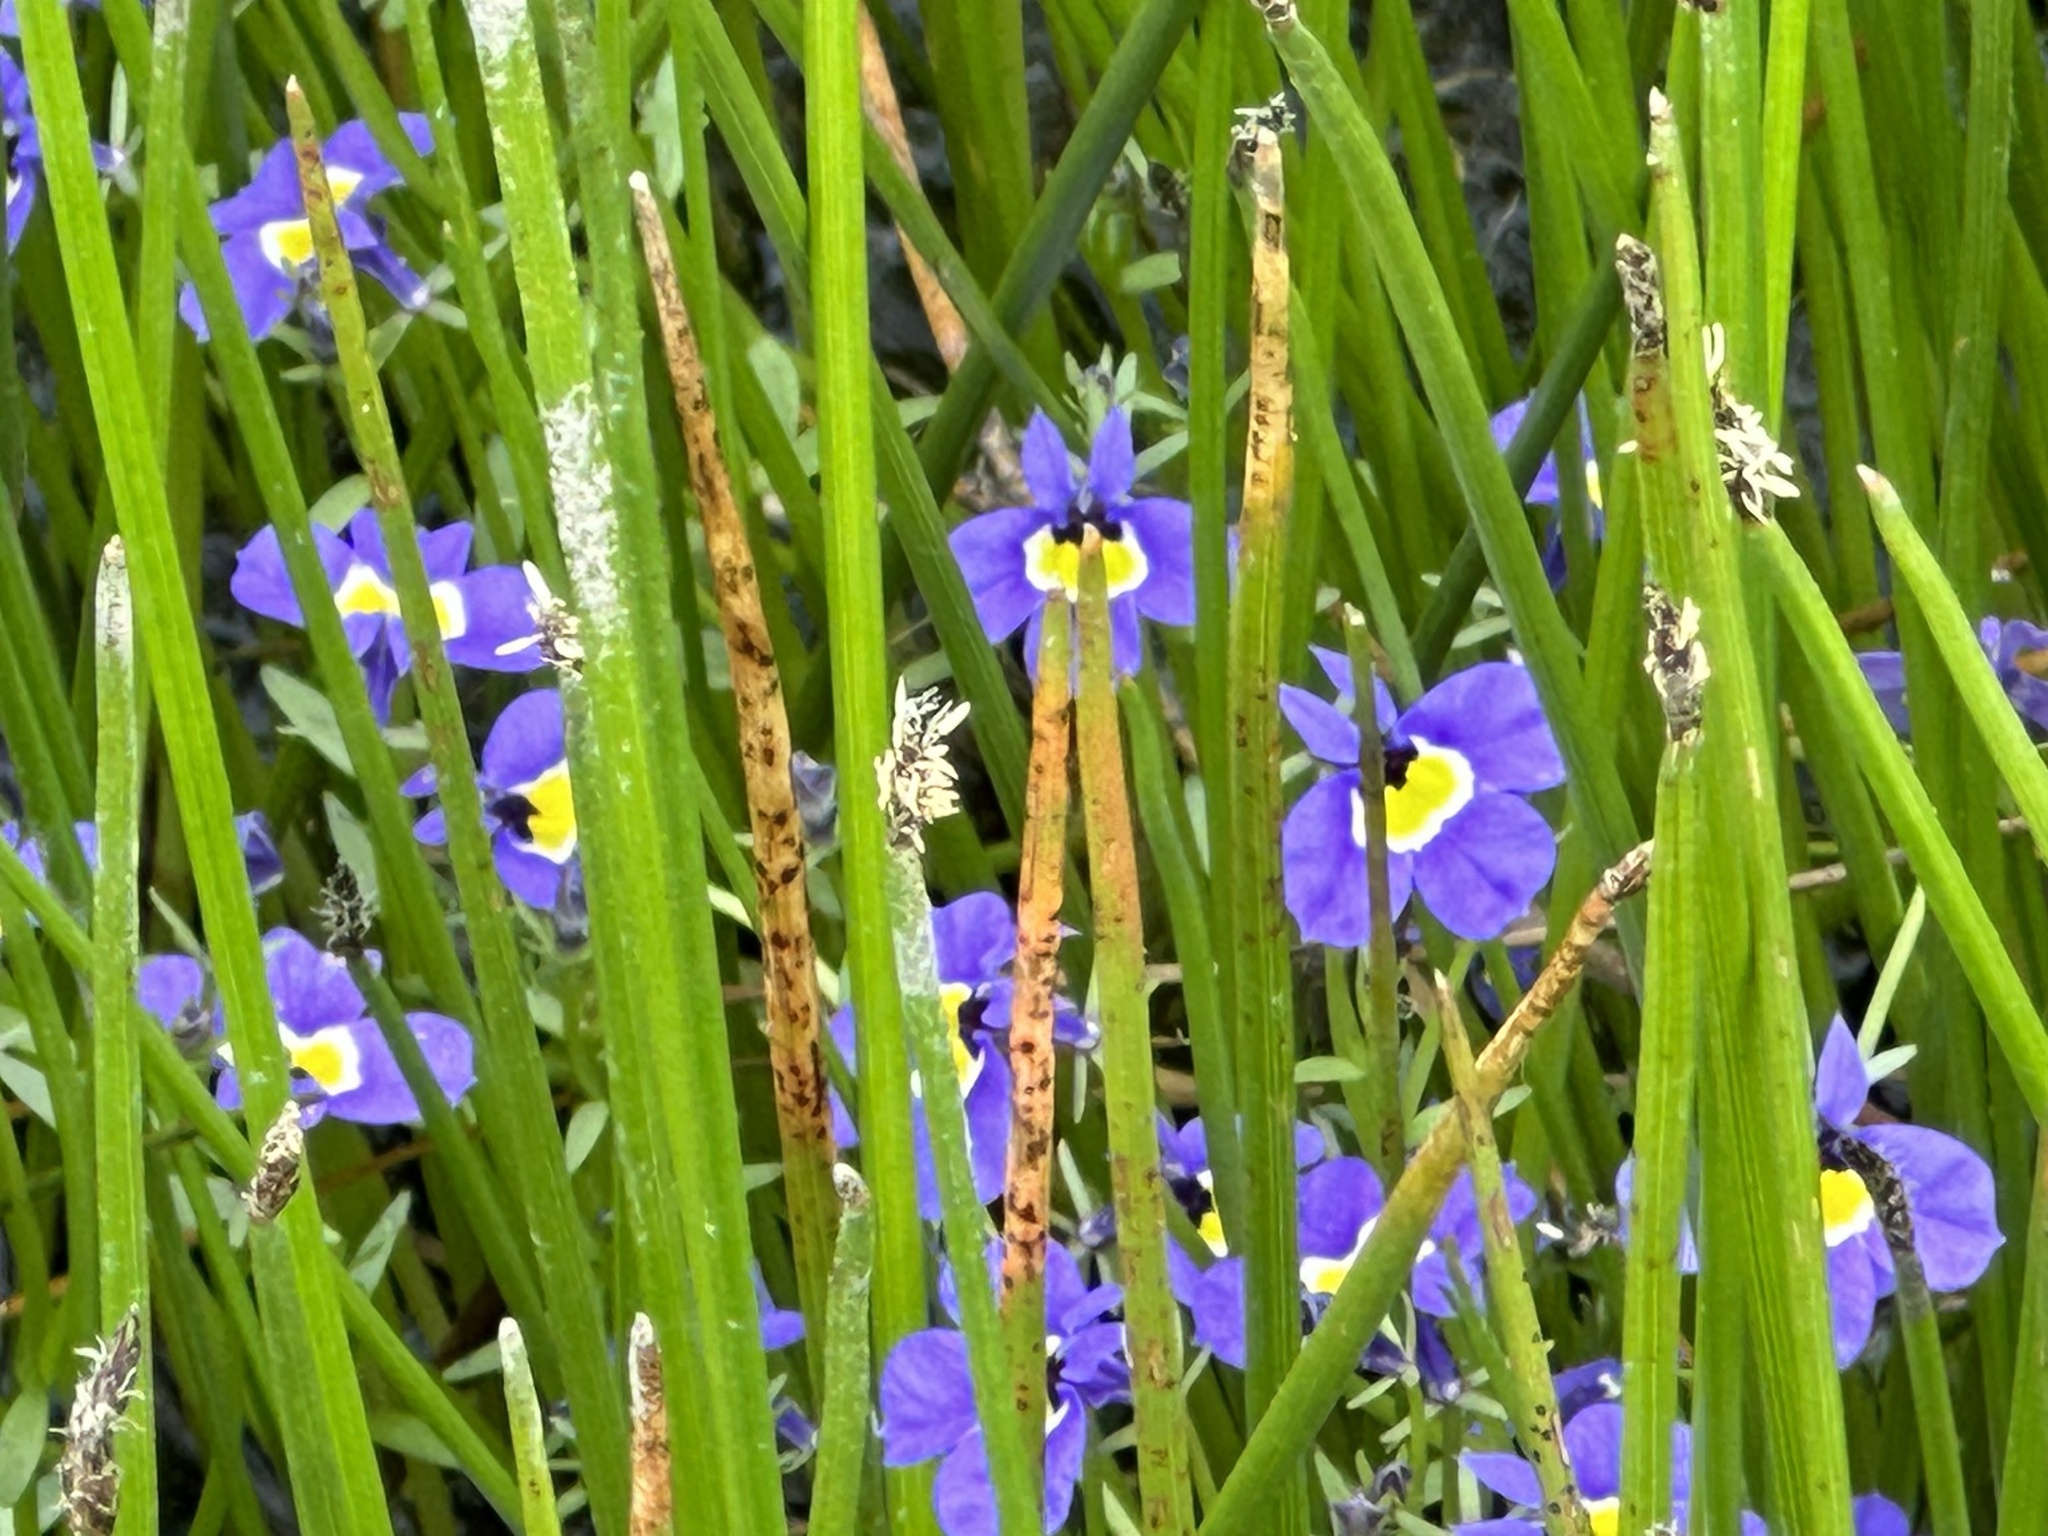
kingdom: Plantae
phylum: Tracheophyta
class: Magnoliopsida
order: Asterales
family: Campanulaceae
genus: Downingia
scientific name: Downingia cuspidata
